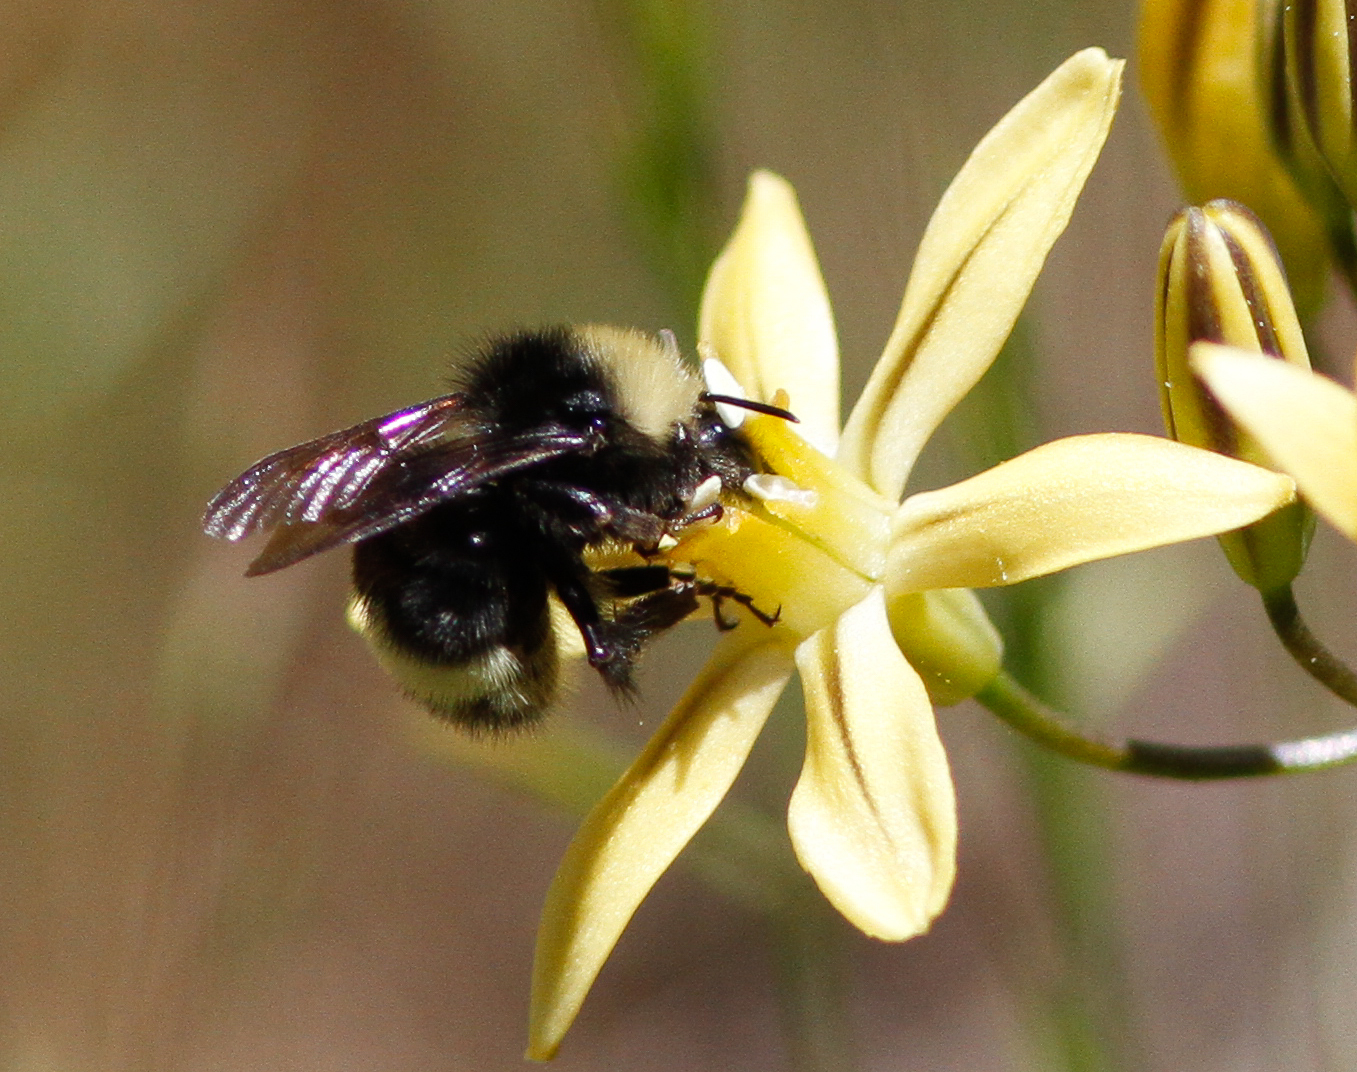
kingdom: Animalia
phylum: Arthropoda
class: Insecta
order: Hymenoptera
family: Apidae
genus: Bombus
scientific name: Bombus vandykei
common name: Van dyke bumble bee
